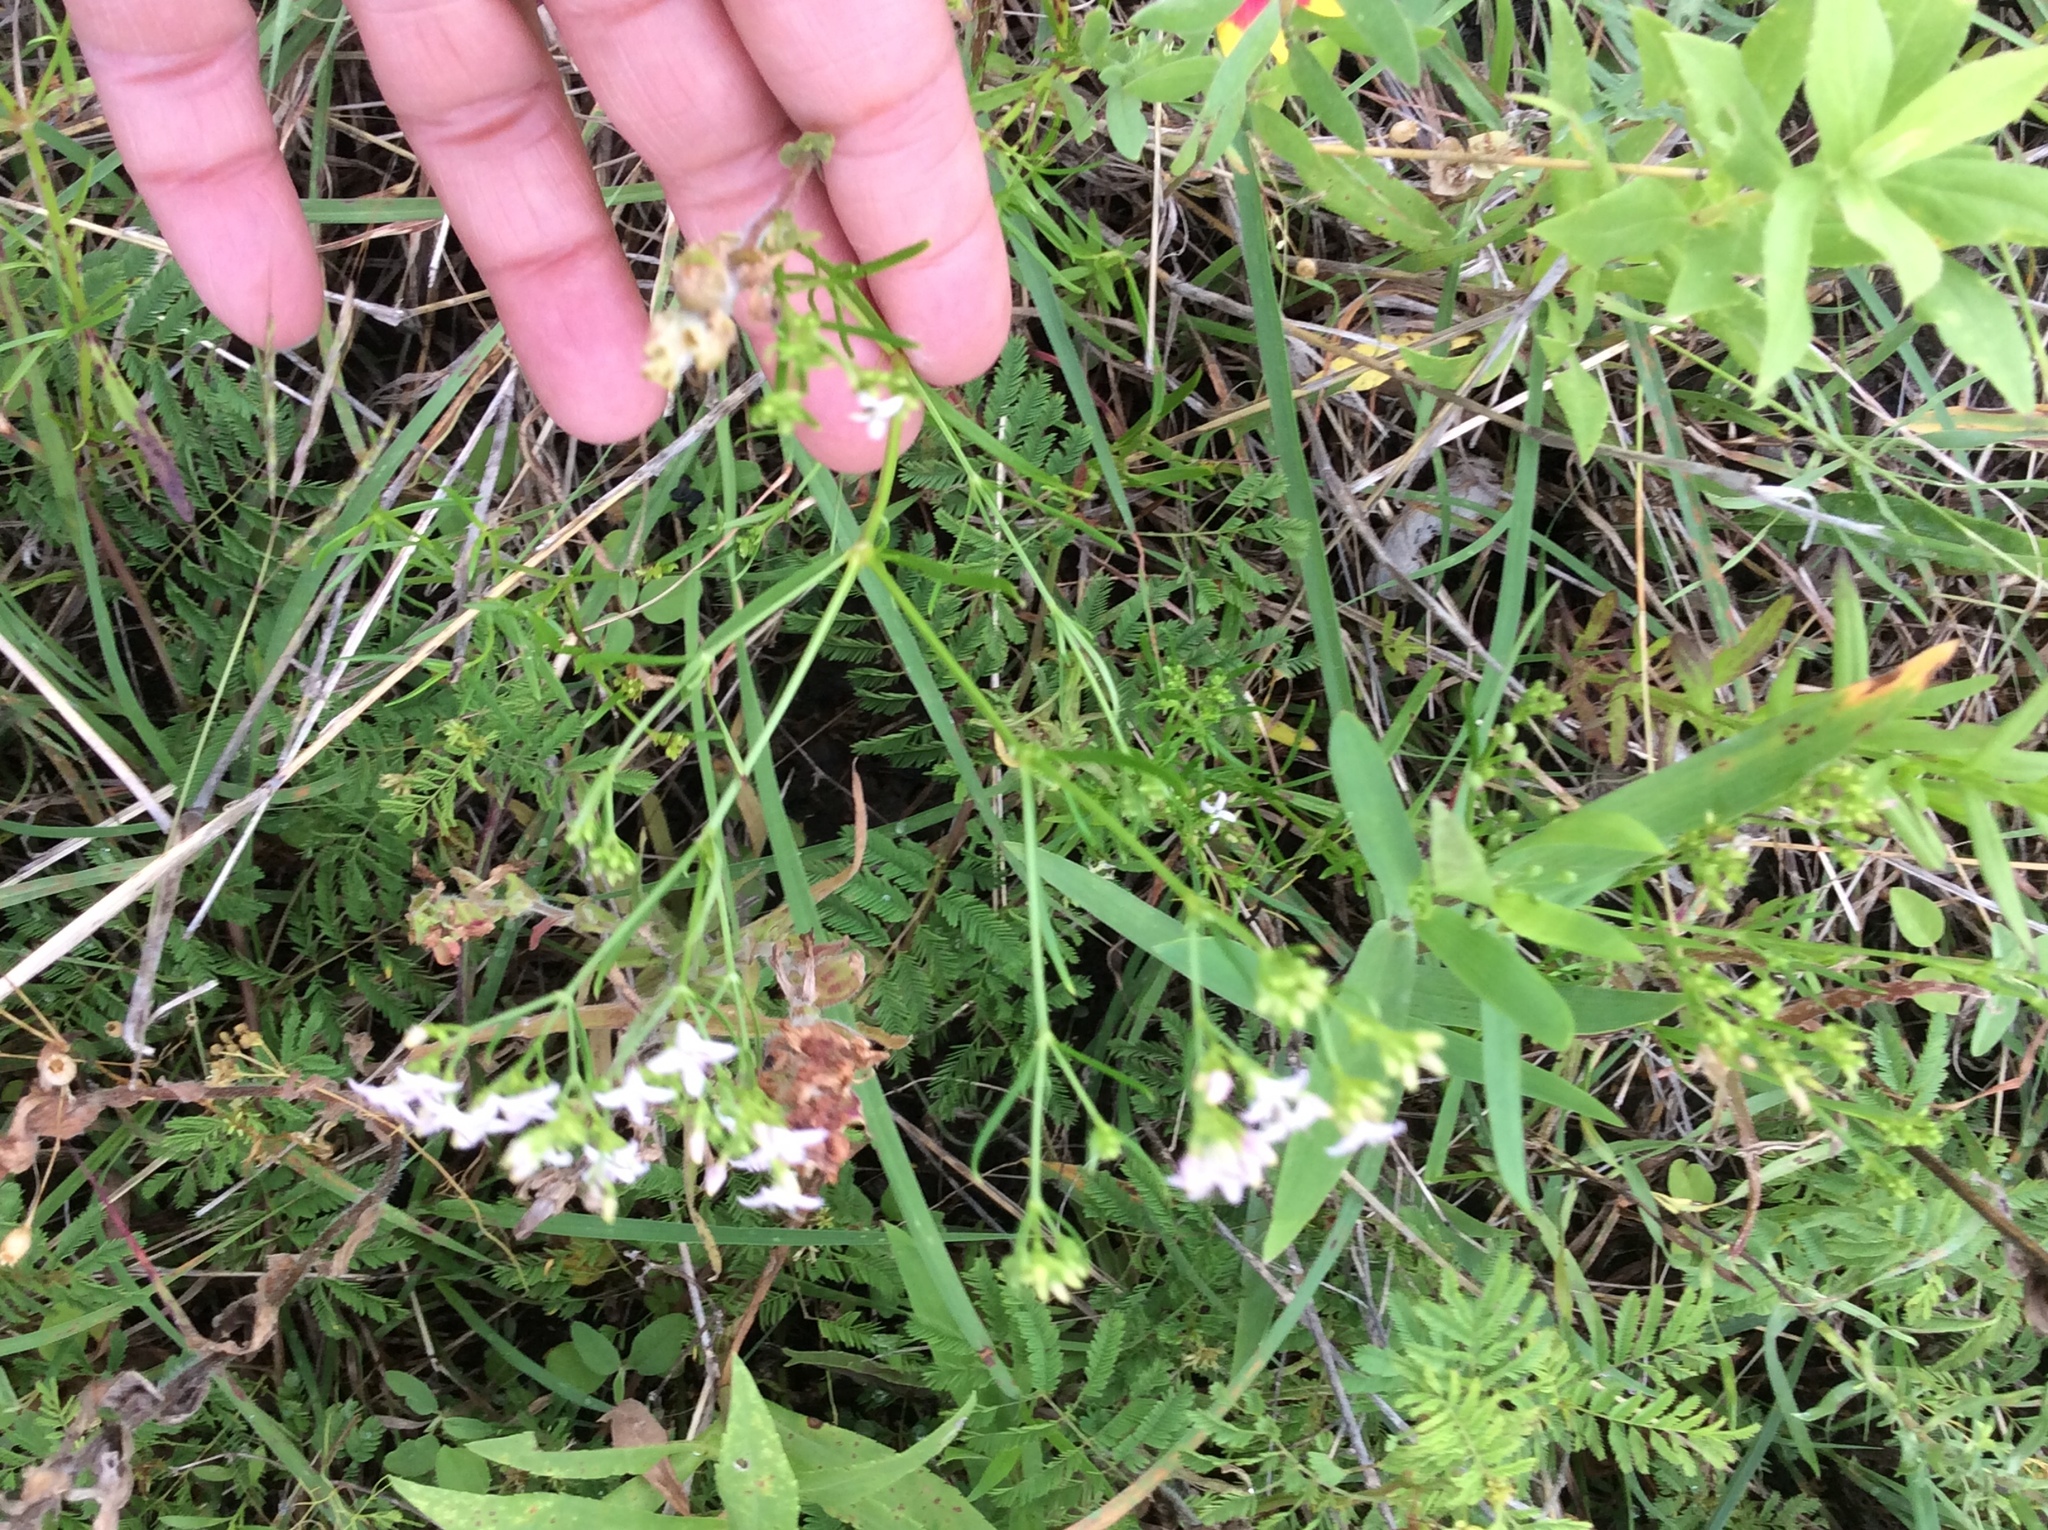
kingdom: Plantae
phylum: Tracheophyta
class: Magnoliopsida
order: Gentianales
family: Rubiaceae
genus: Sherardia
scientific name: Sherardia arvensis
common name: Field madder
